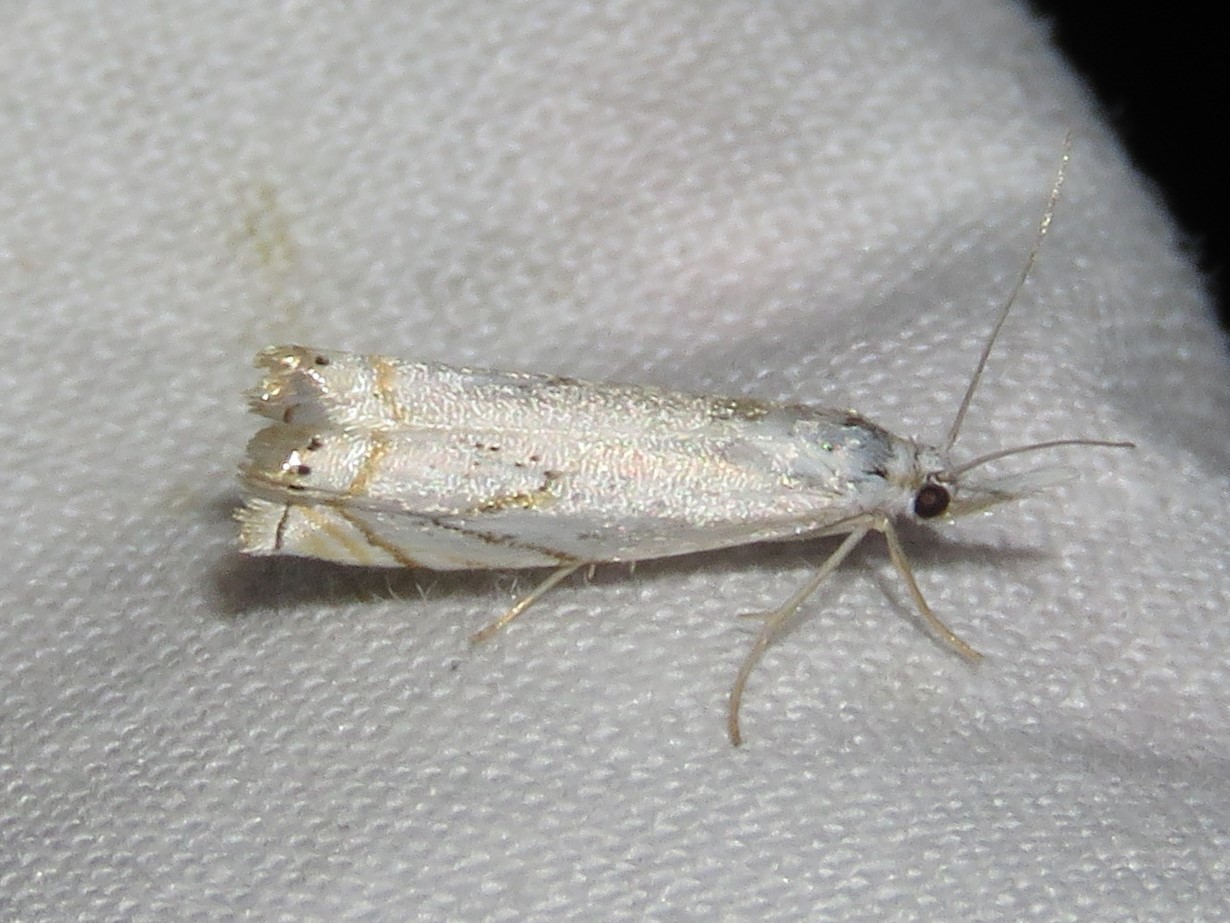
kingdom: Animalia
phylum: Arthropoda
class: Insecta
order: Lepidoptera
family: Crambidae
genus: Crambus
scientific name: Crambus albellus
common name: Small white grass-veneer
